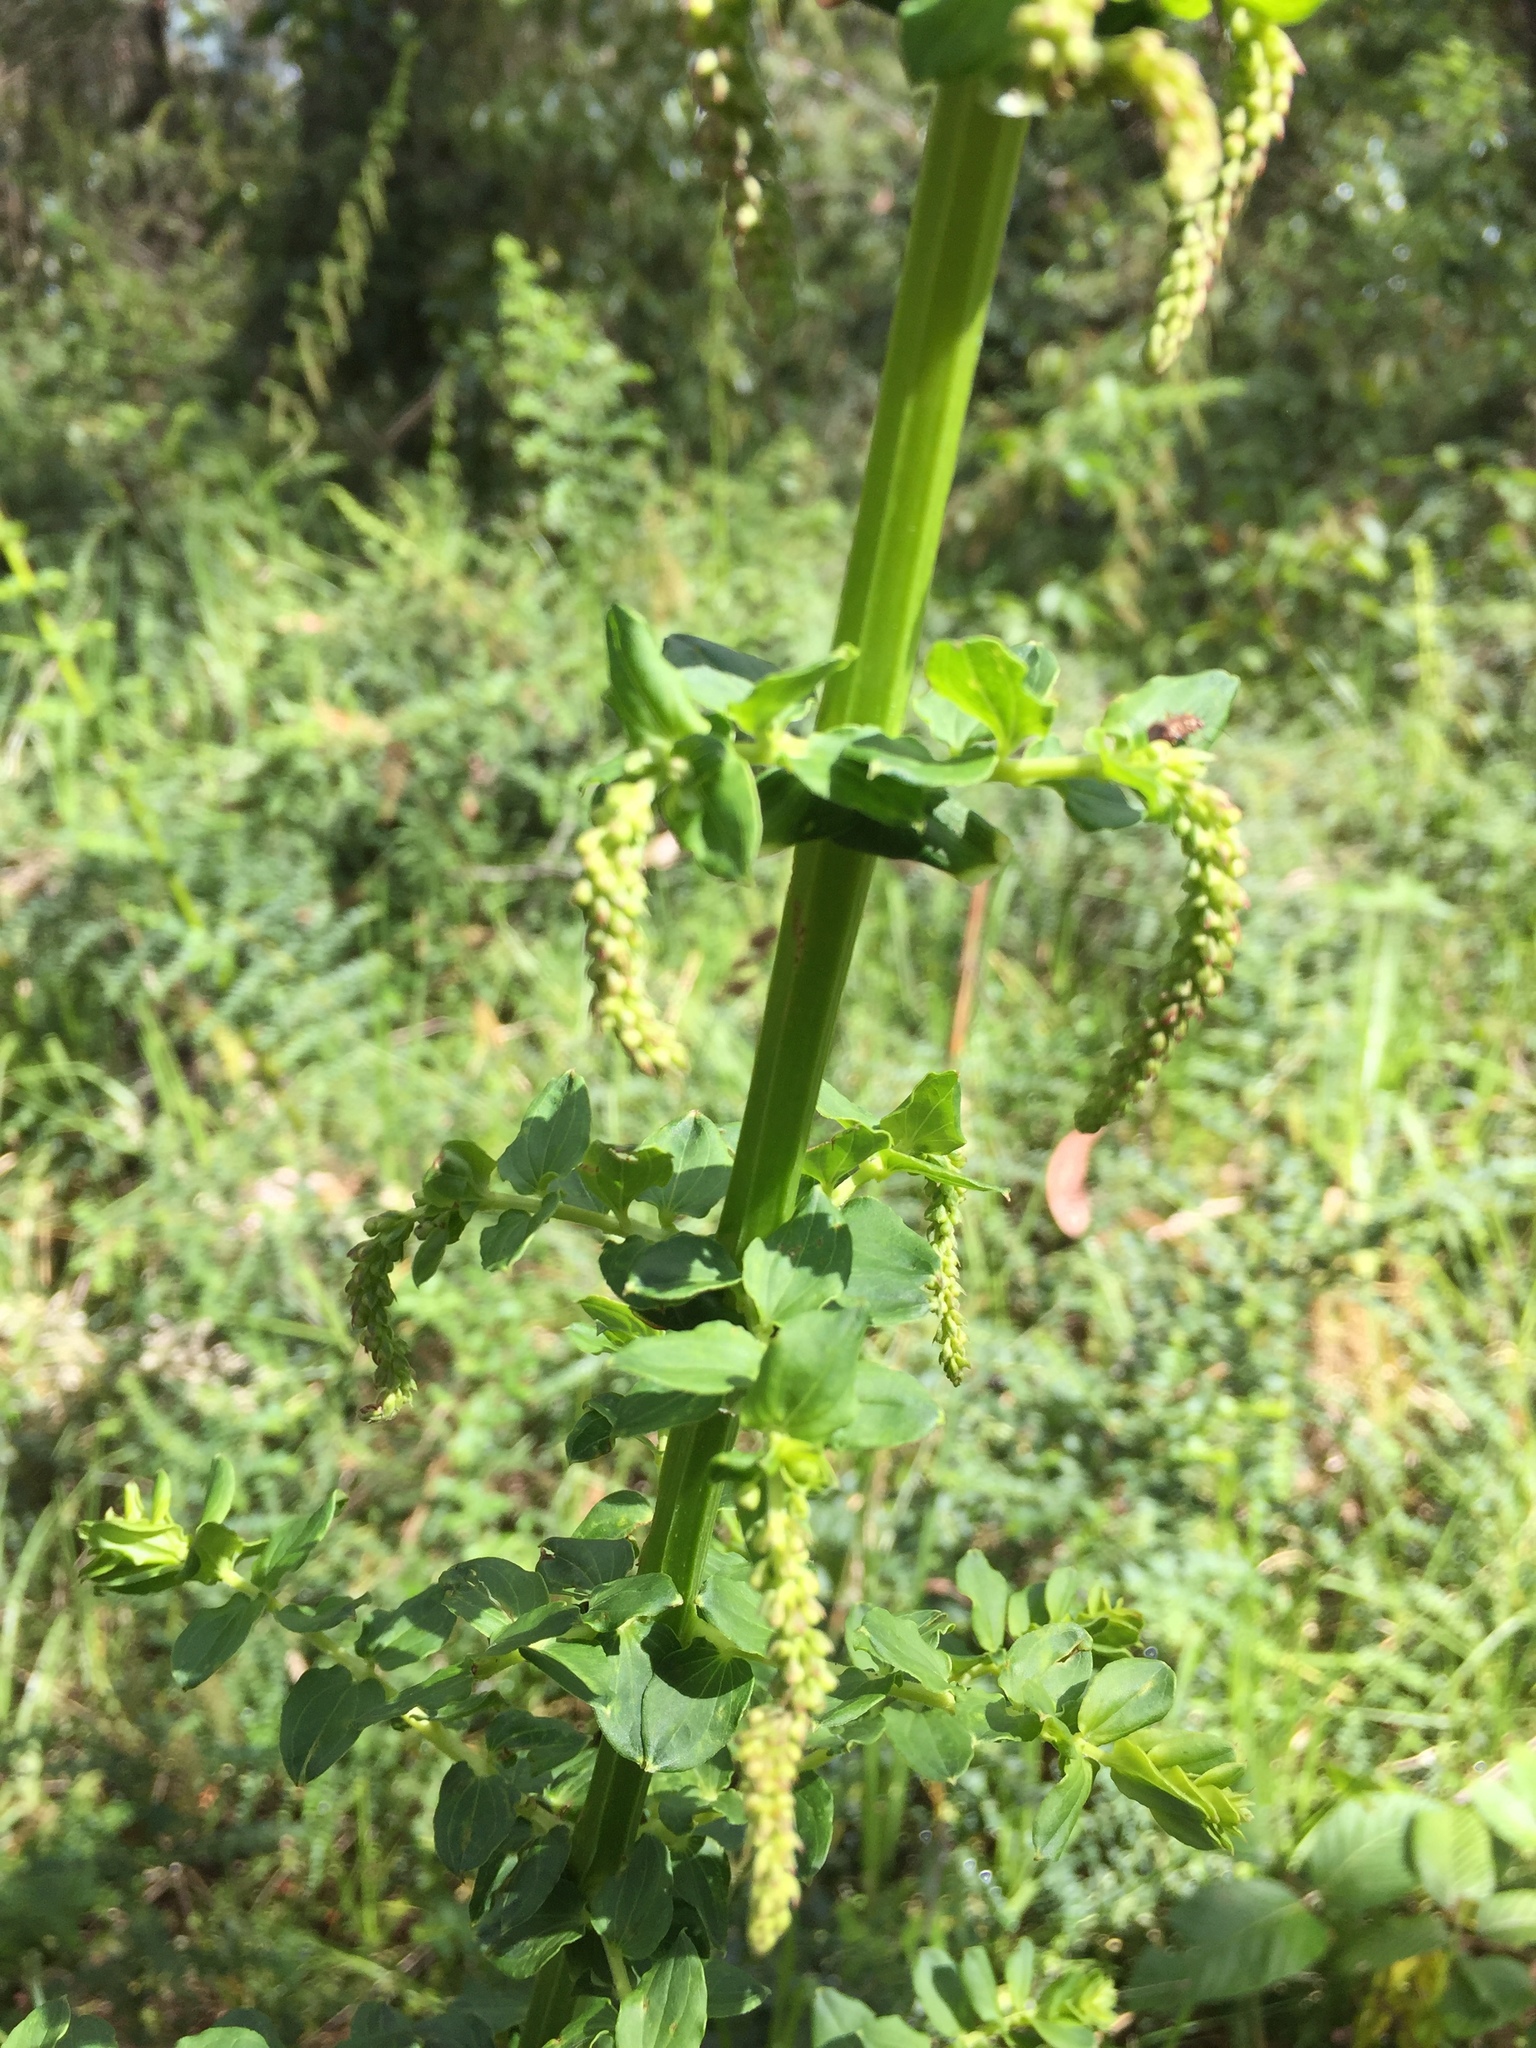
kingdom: Plantae
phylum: Tracheophyta
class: Magnoliopsida
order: Cucurbitales
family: Coriariaceae
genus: Coriaria
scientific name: Coriaria ruscifolia
